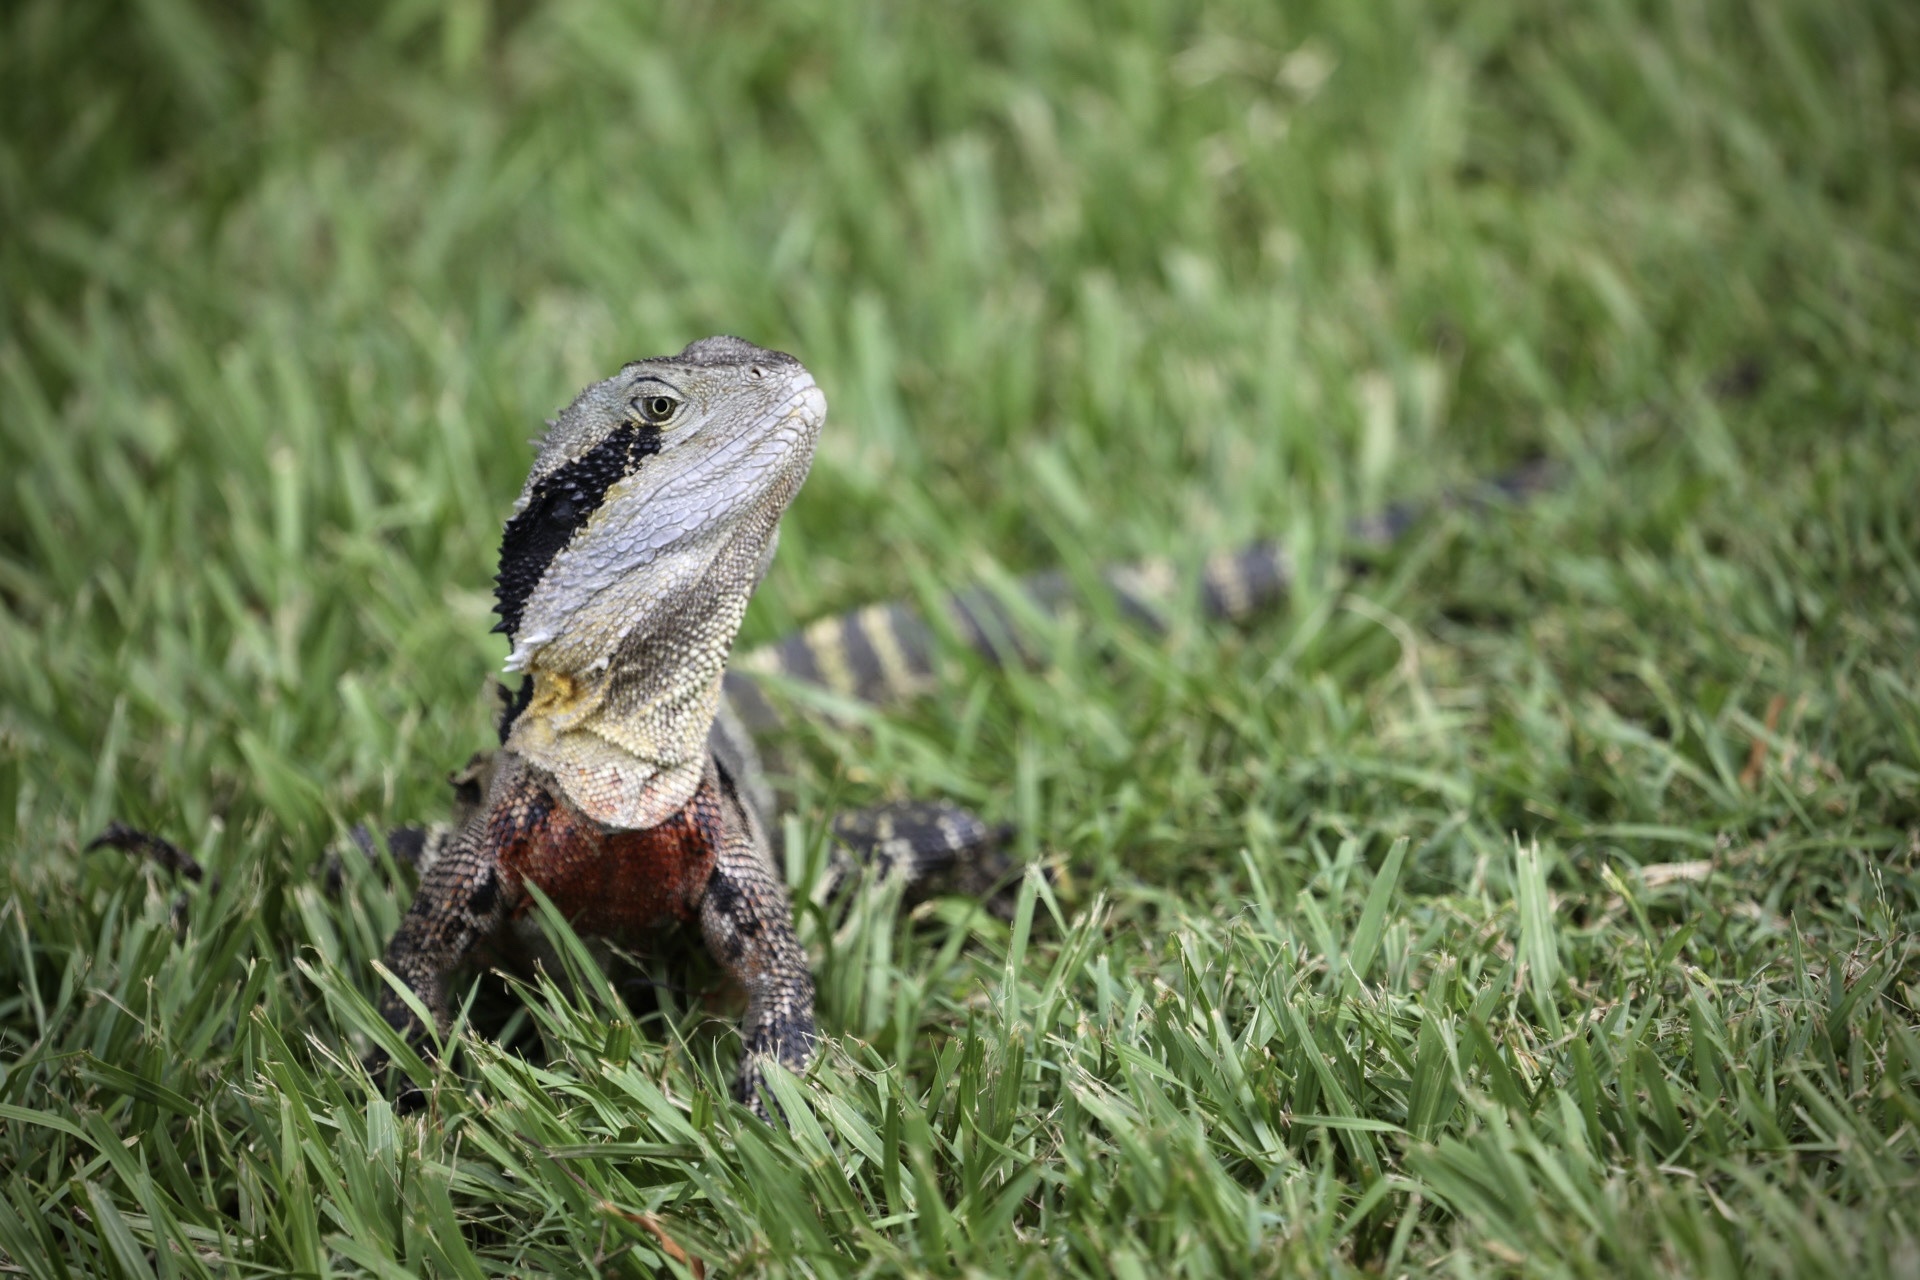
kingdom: Animalia
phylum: Chordata
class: Squamata
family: Agamidae
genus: Intellagama
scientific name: Intellagama lesueurii
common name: Eastern water dragon
